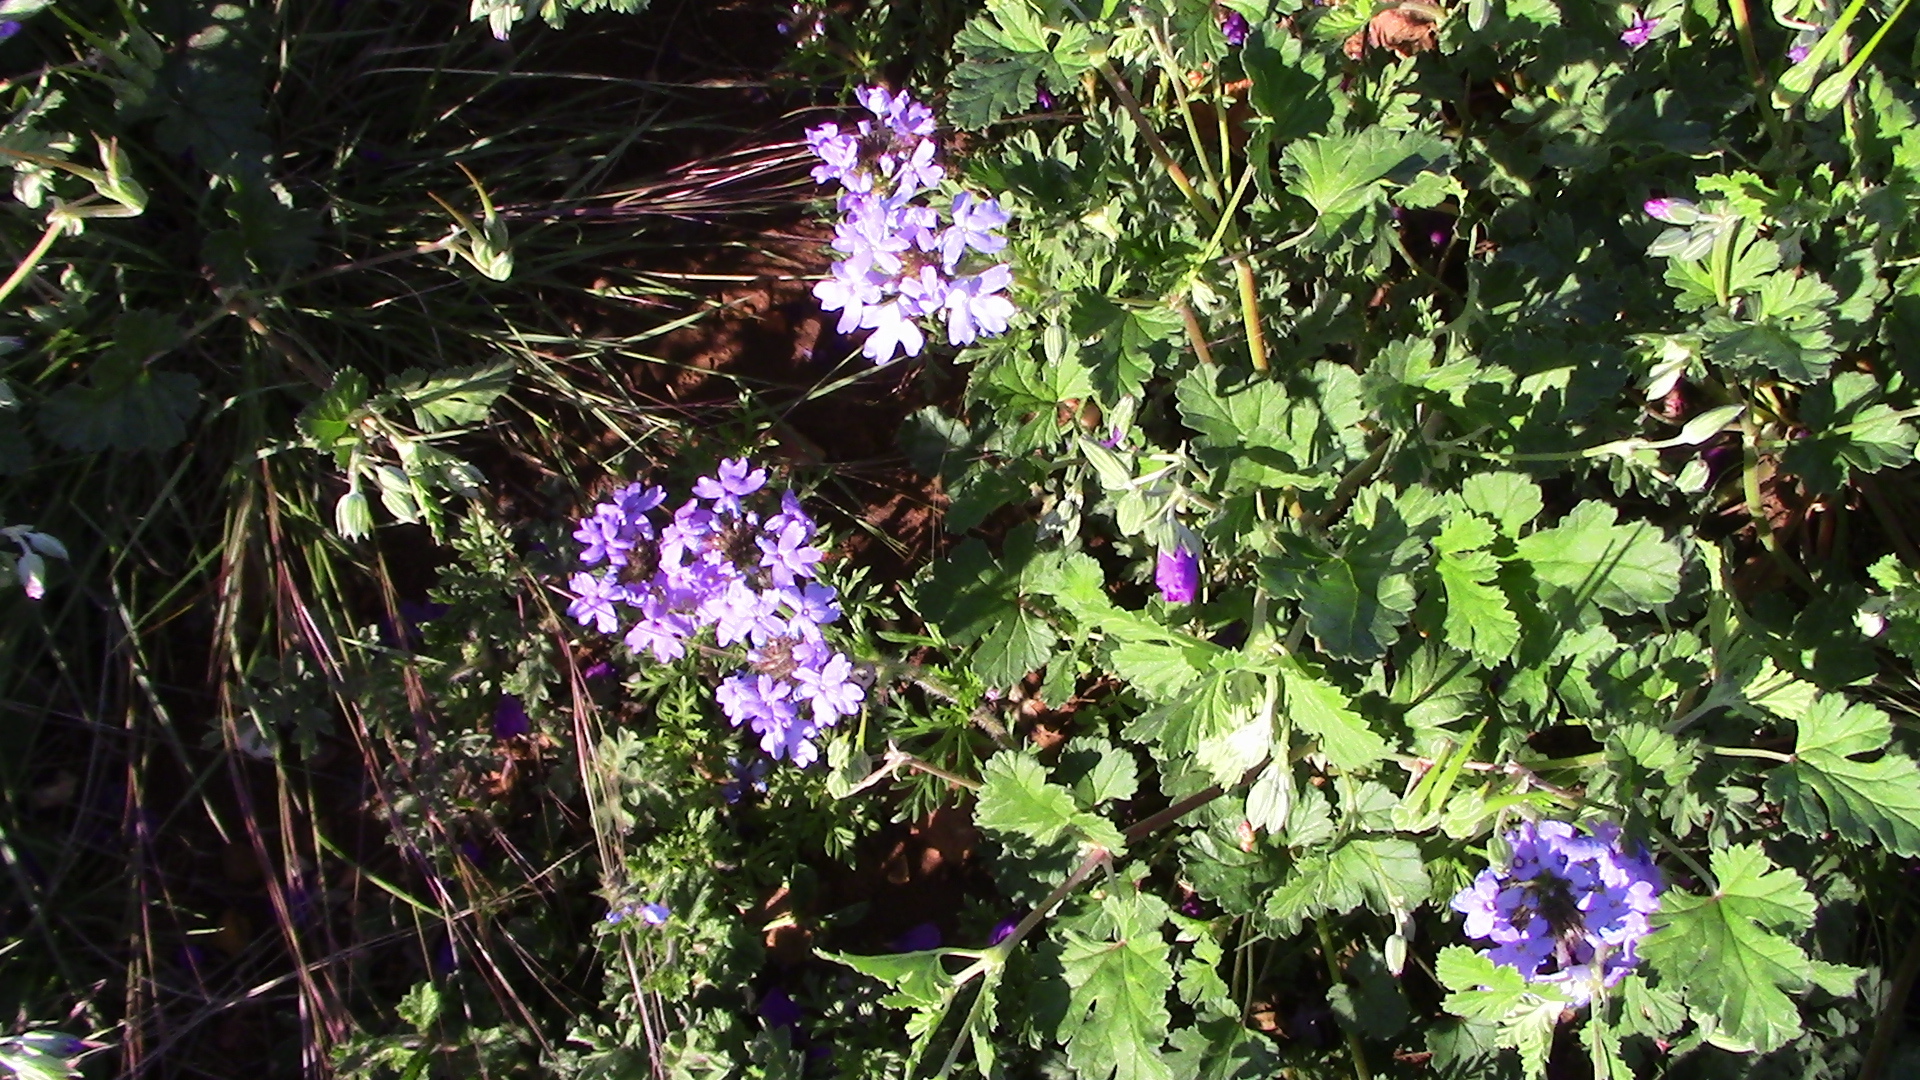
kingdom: Plantae
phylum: Tracheophyta
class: Magnoliopsida
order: Lamiales
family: Verbenaceae
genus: Verbena
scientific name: Verbena bipinnatifida
